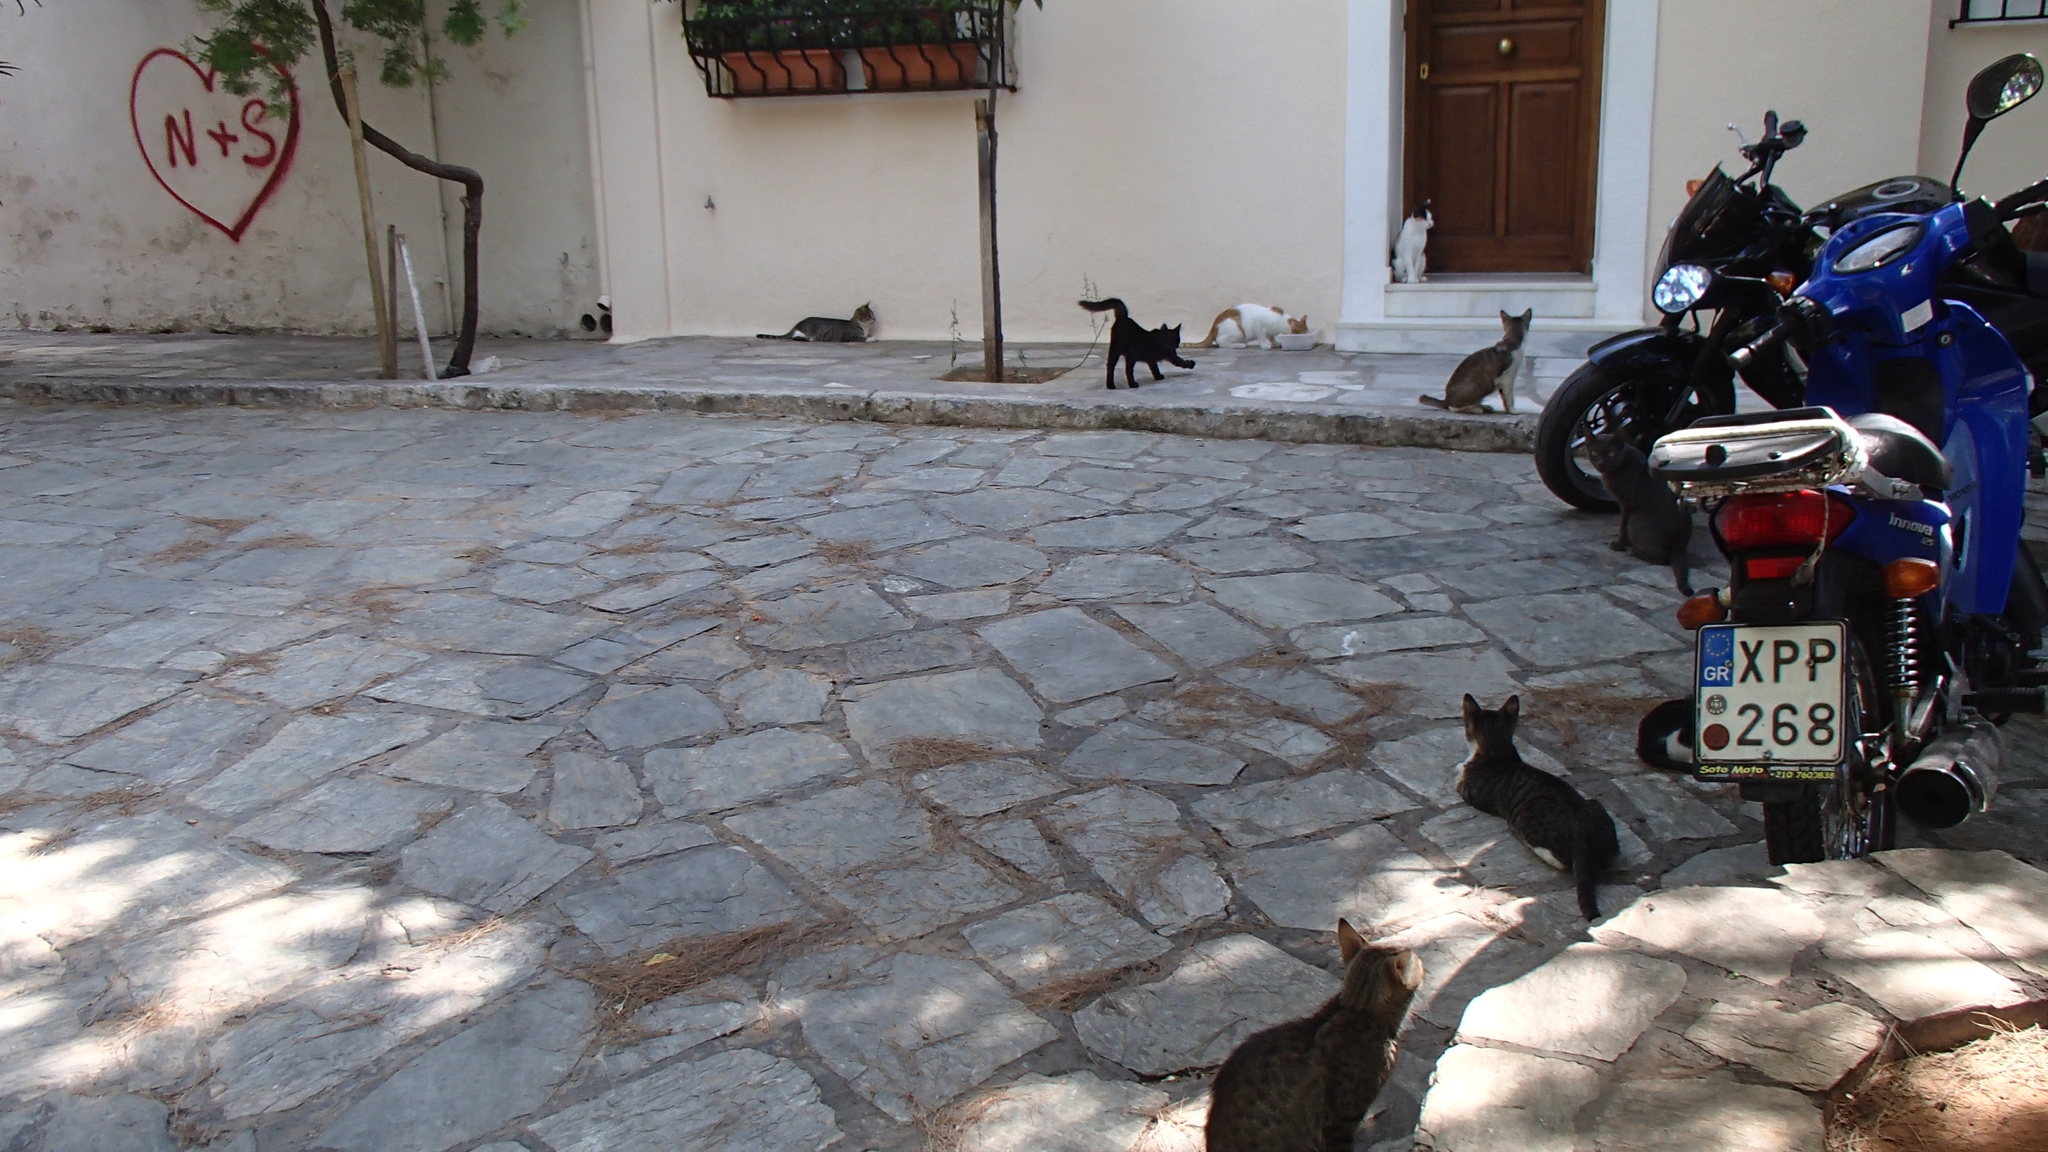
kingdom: Animalia
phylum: Chordata
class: Mammalia
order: Carnivora
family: Felidae
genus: Felis
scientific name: Felis catus
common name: Domestic cat
